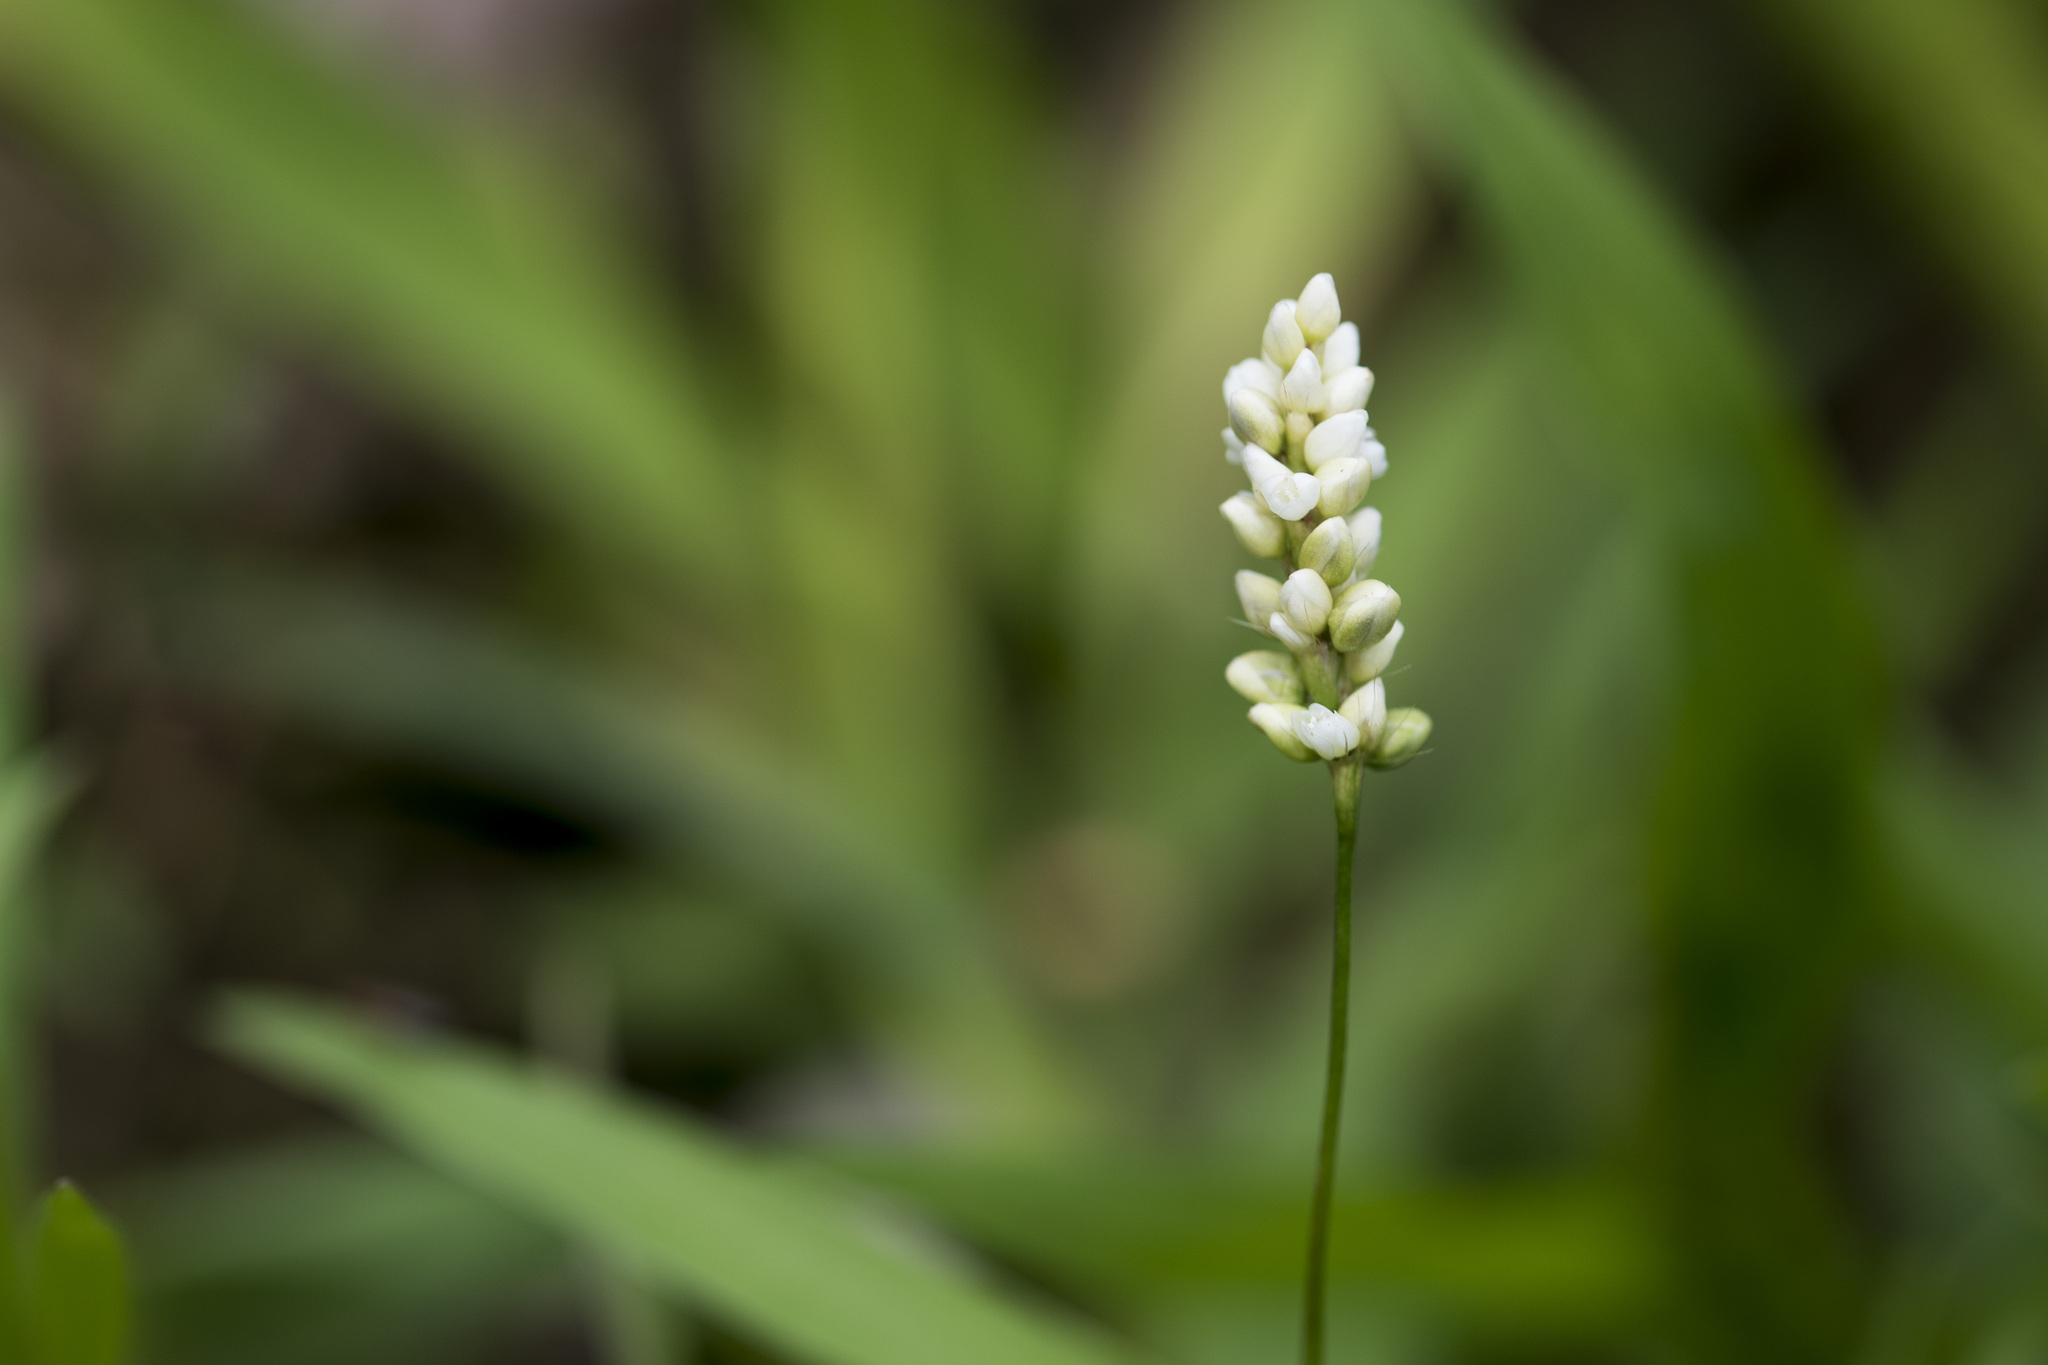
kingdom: Plantae
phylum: Tracheophyta
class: Magnoliopsida
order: Caryophyllales
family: Polygonaceae
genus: Persicaria
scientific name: Persicaria longiseta
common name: Bristly lady's-thumb
